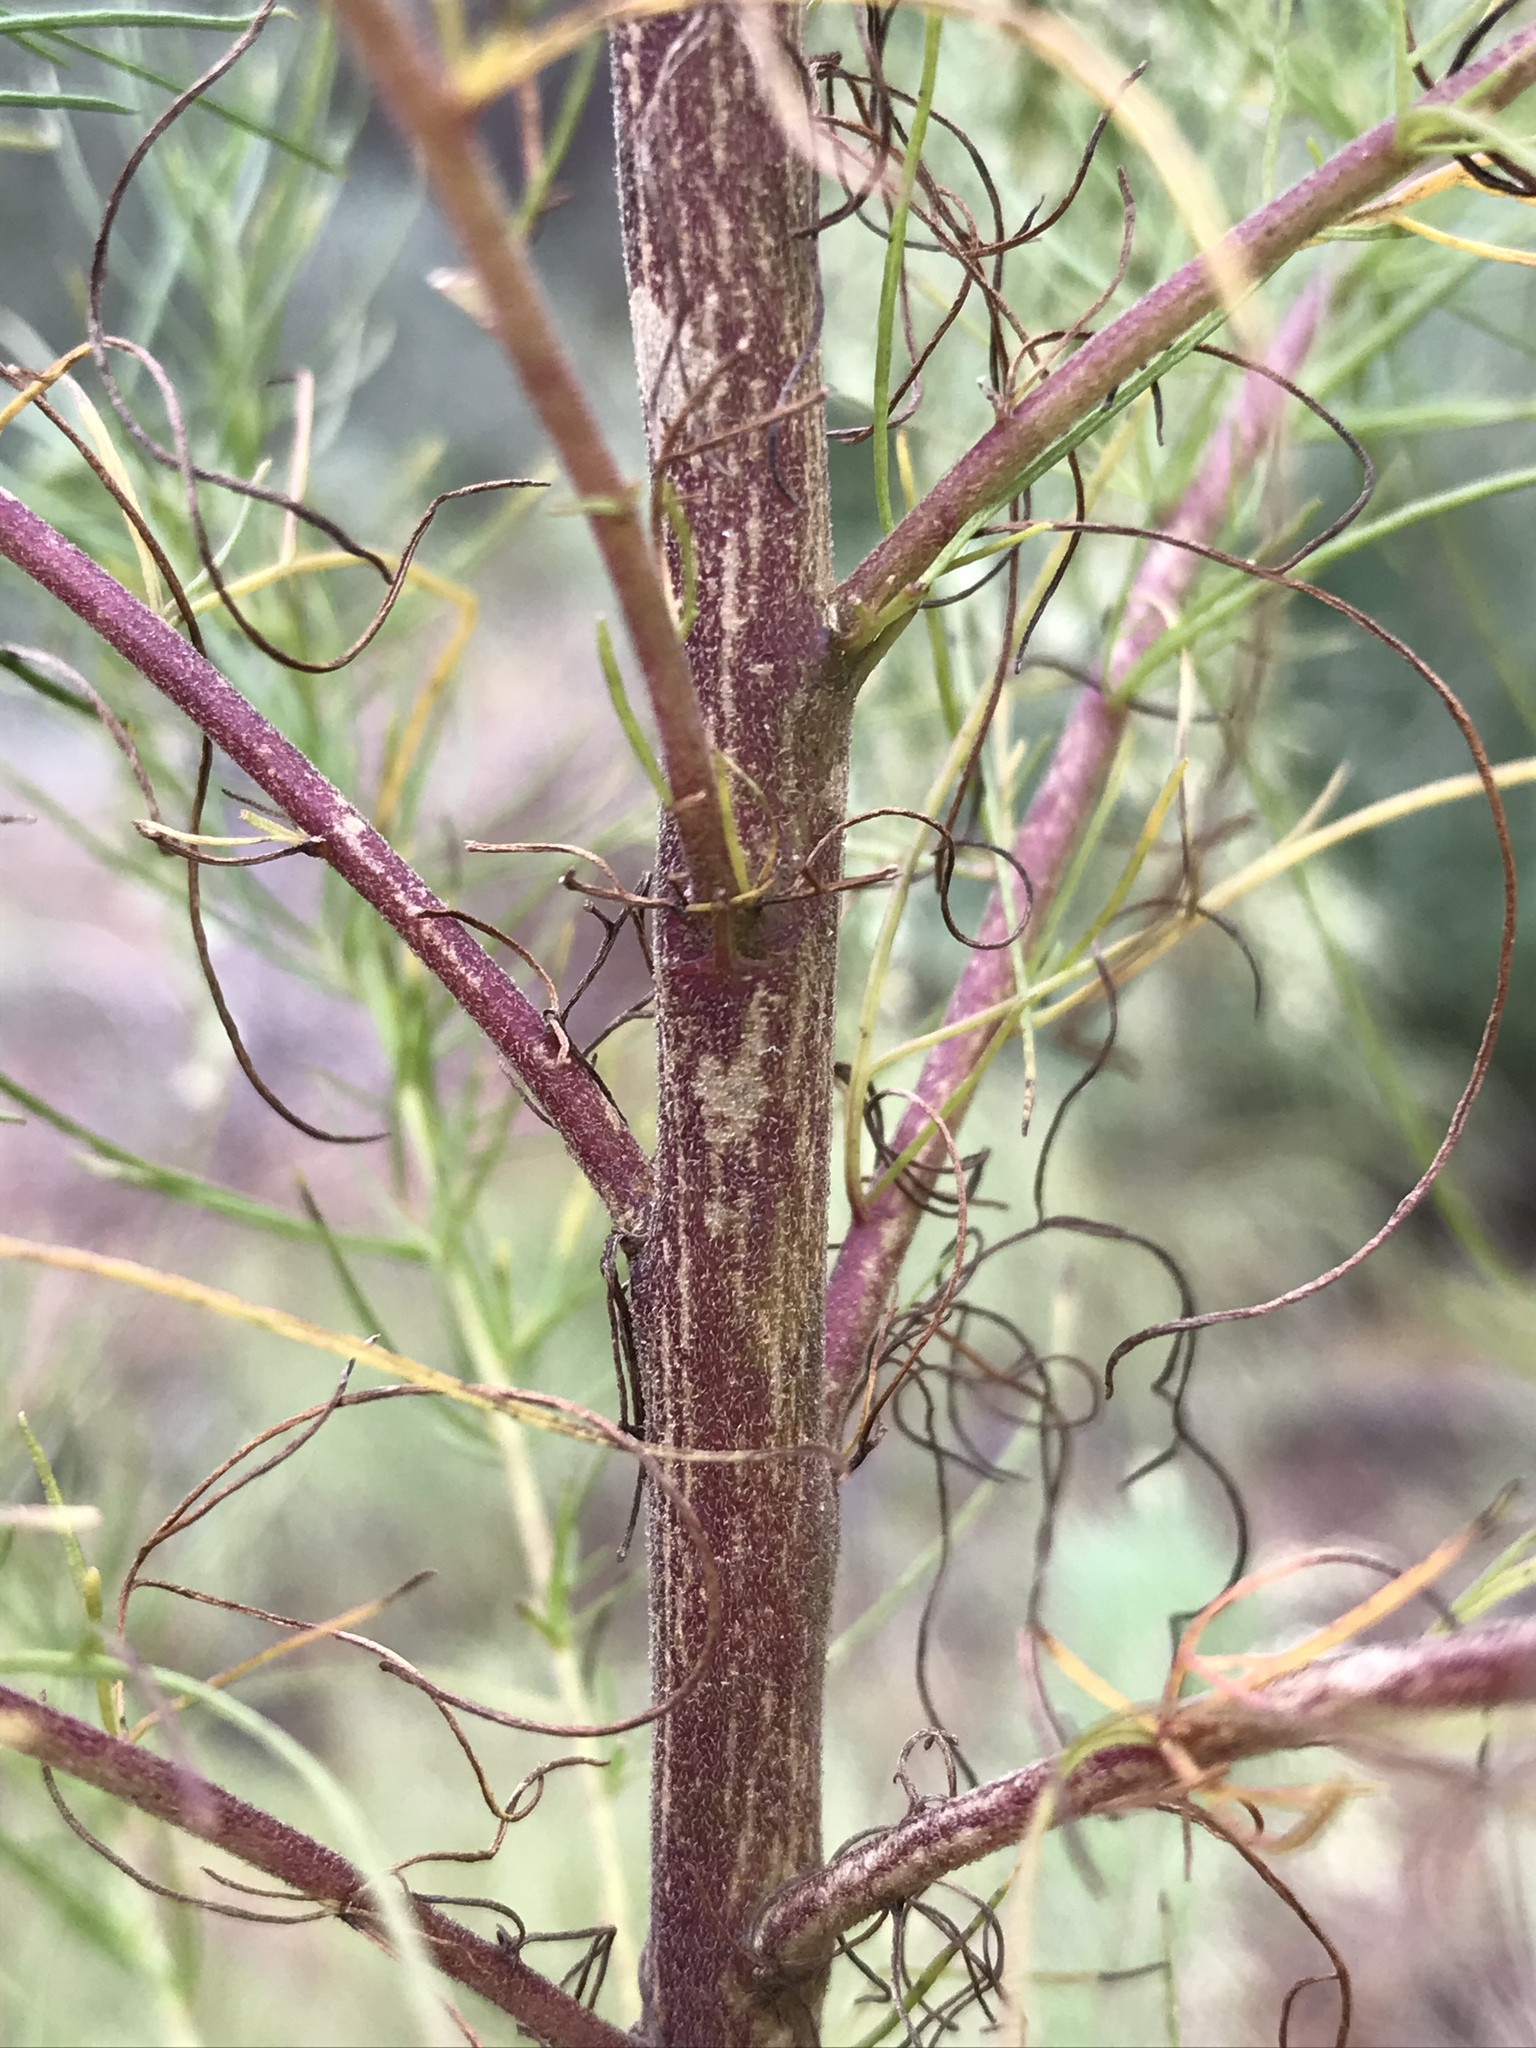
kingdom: Plantae
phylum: Tracheophyta
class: Magnoliopsida
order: Asterales
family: Asteraceae
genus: Eupatorium
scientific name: Eupatorium capillifolium
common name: Dog-fennel
